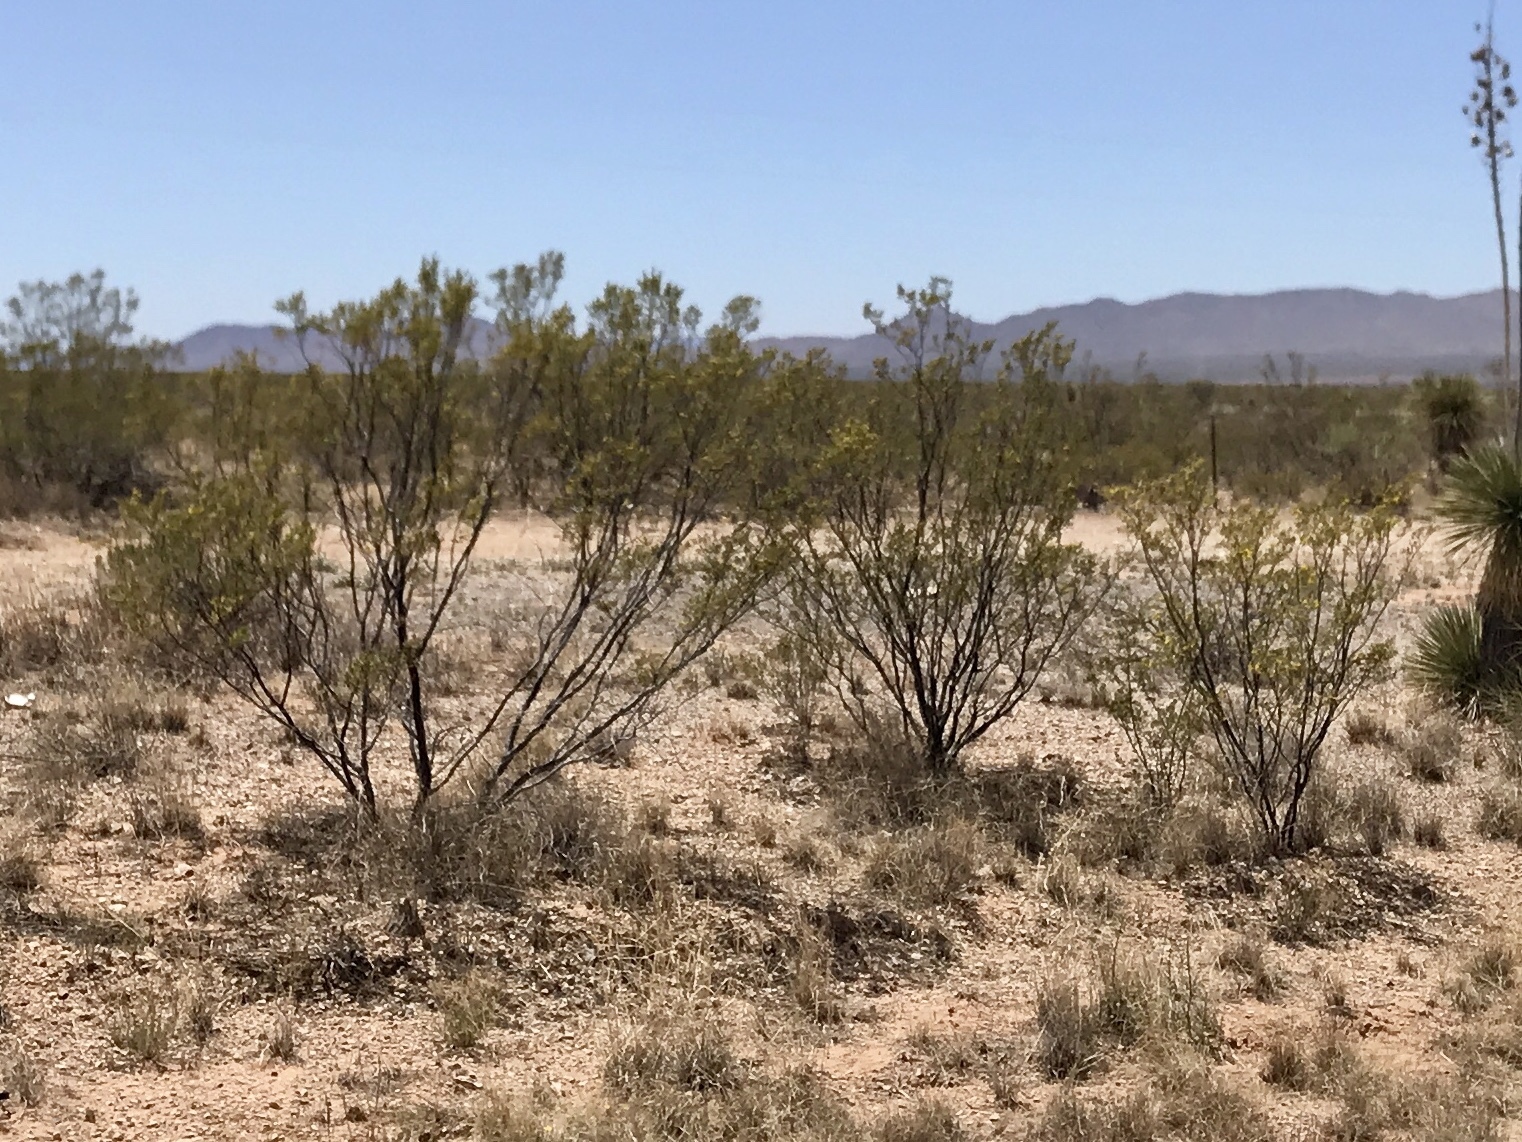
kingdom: Plantae
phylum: Tracheophyta
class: Magnoliopsida
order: Zygophyllales
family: Zygophyllaceae
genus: Larrea
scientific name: Larrea tridentata
